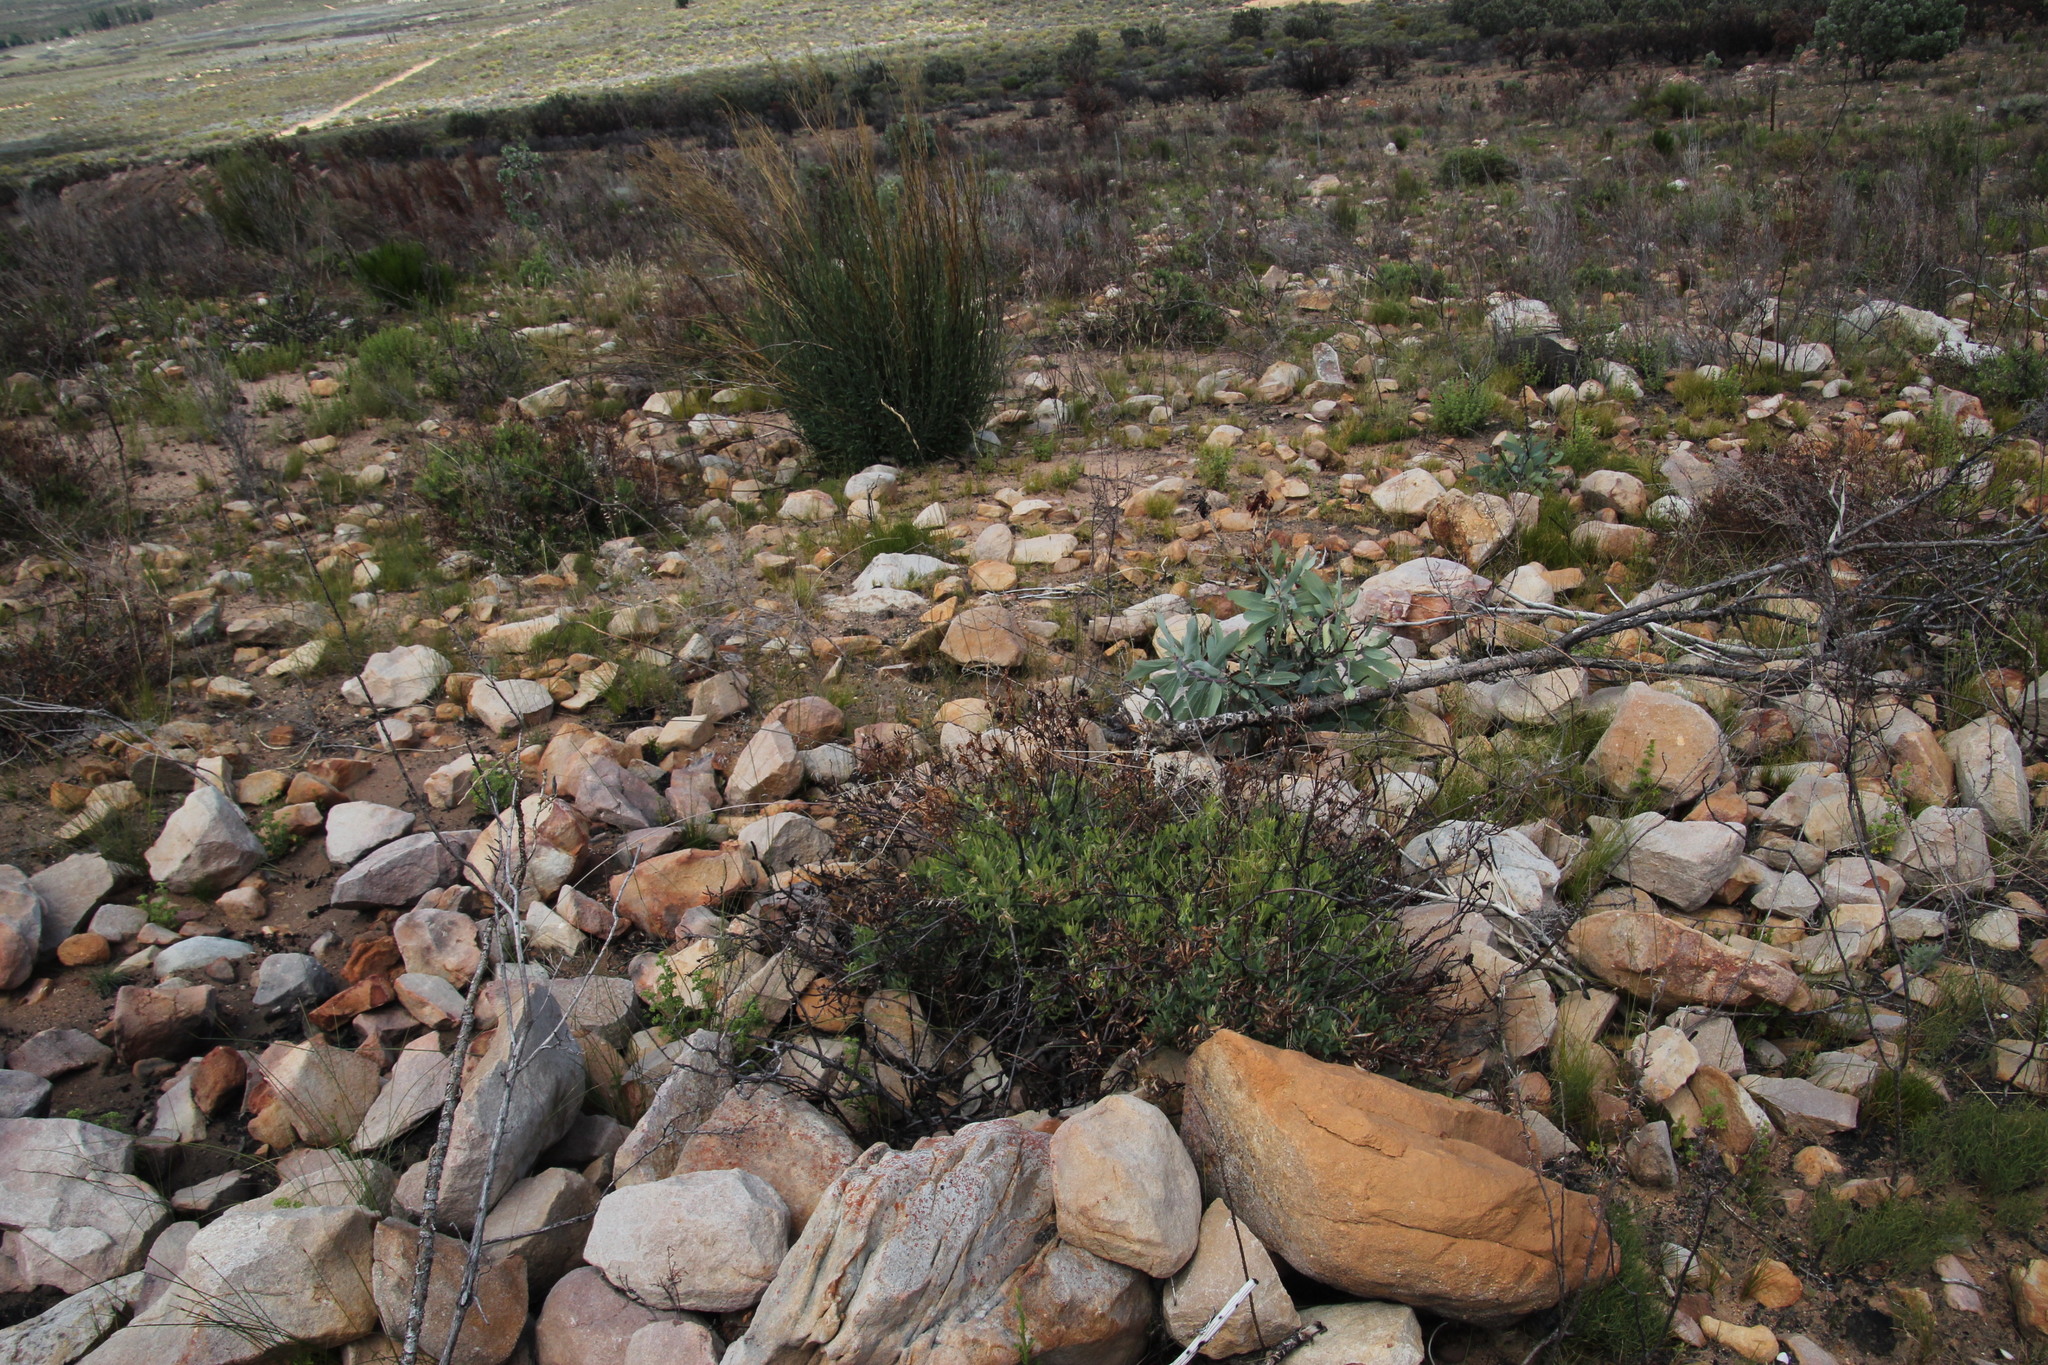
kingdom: Plantae
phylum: Tracheophyta
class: Magnoliopsida
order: Proteales
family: Proteaceae
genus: Leucadendron
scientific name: Leucadendron glaberrimum
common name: Common oily conebush
